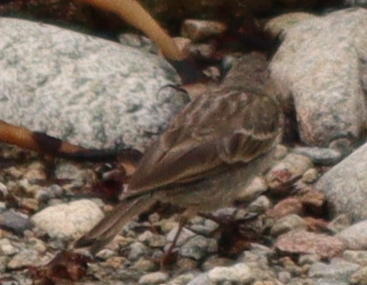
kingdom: Animalia
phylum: Chordata
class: Aves
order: Passeriformes
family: Motacillidae
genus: Anthus
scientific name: Anthus petrosus
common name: Eurasian rock pipit
